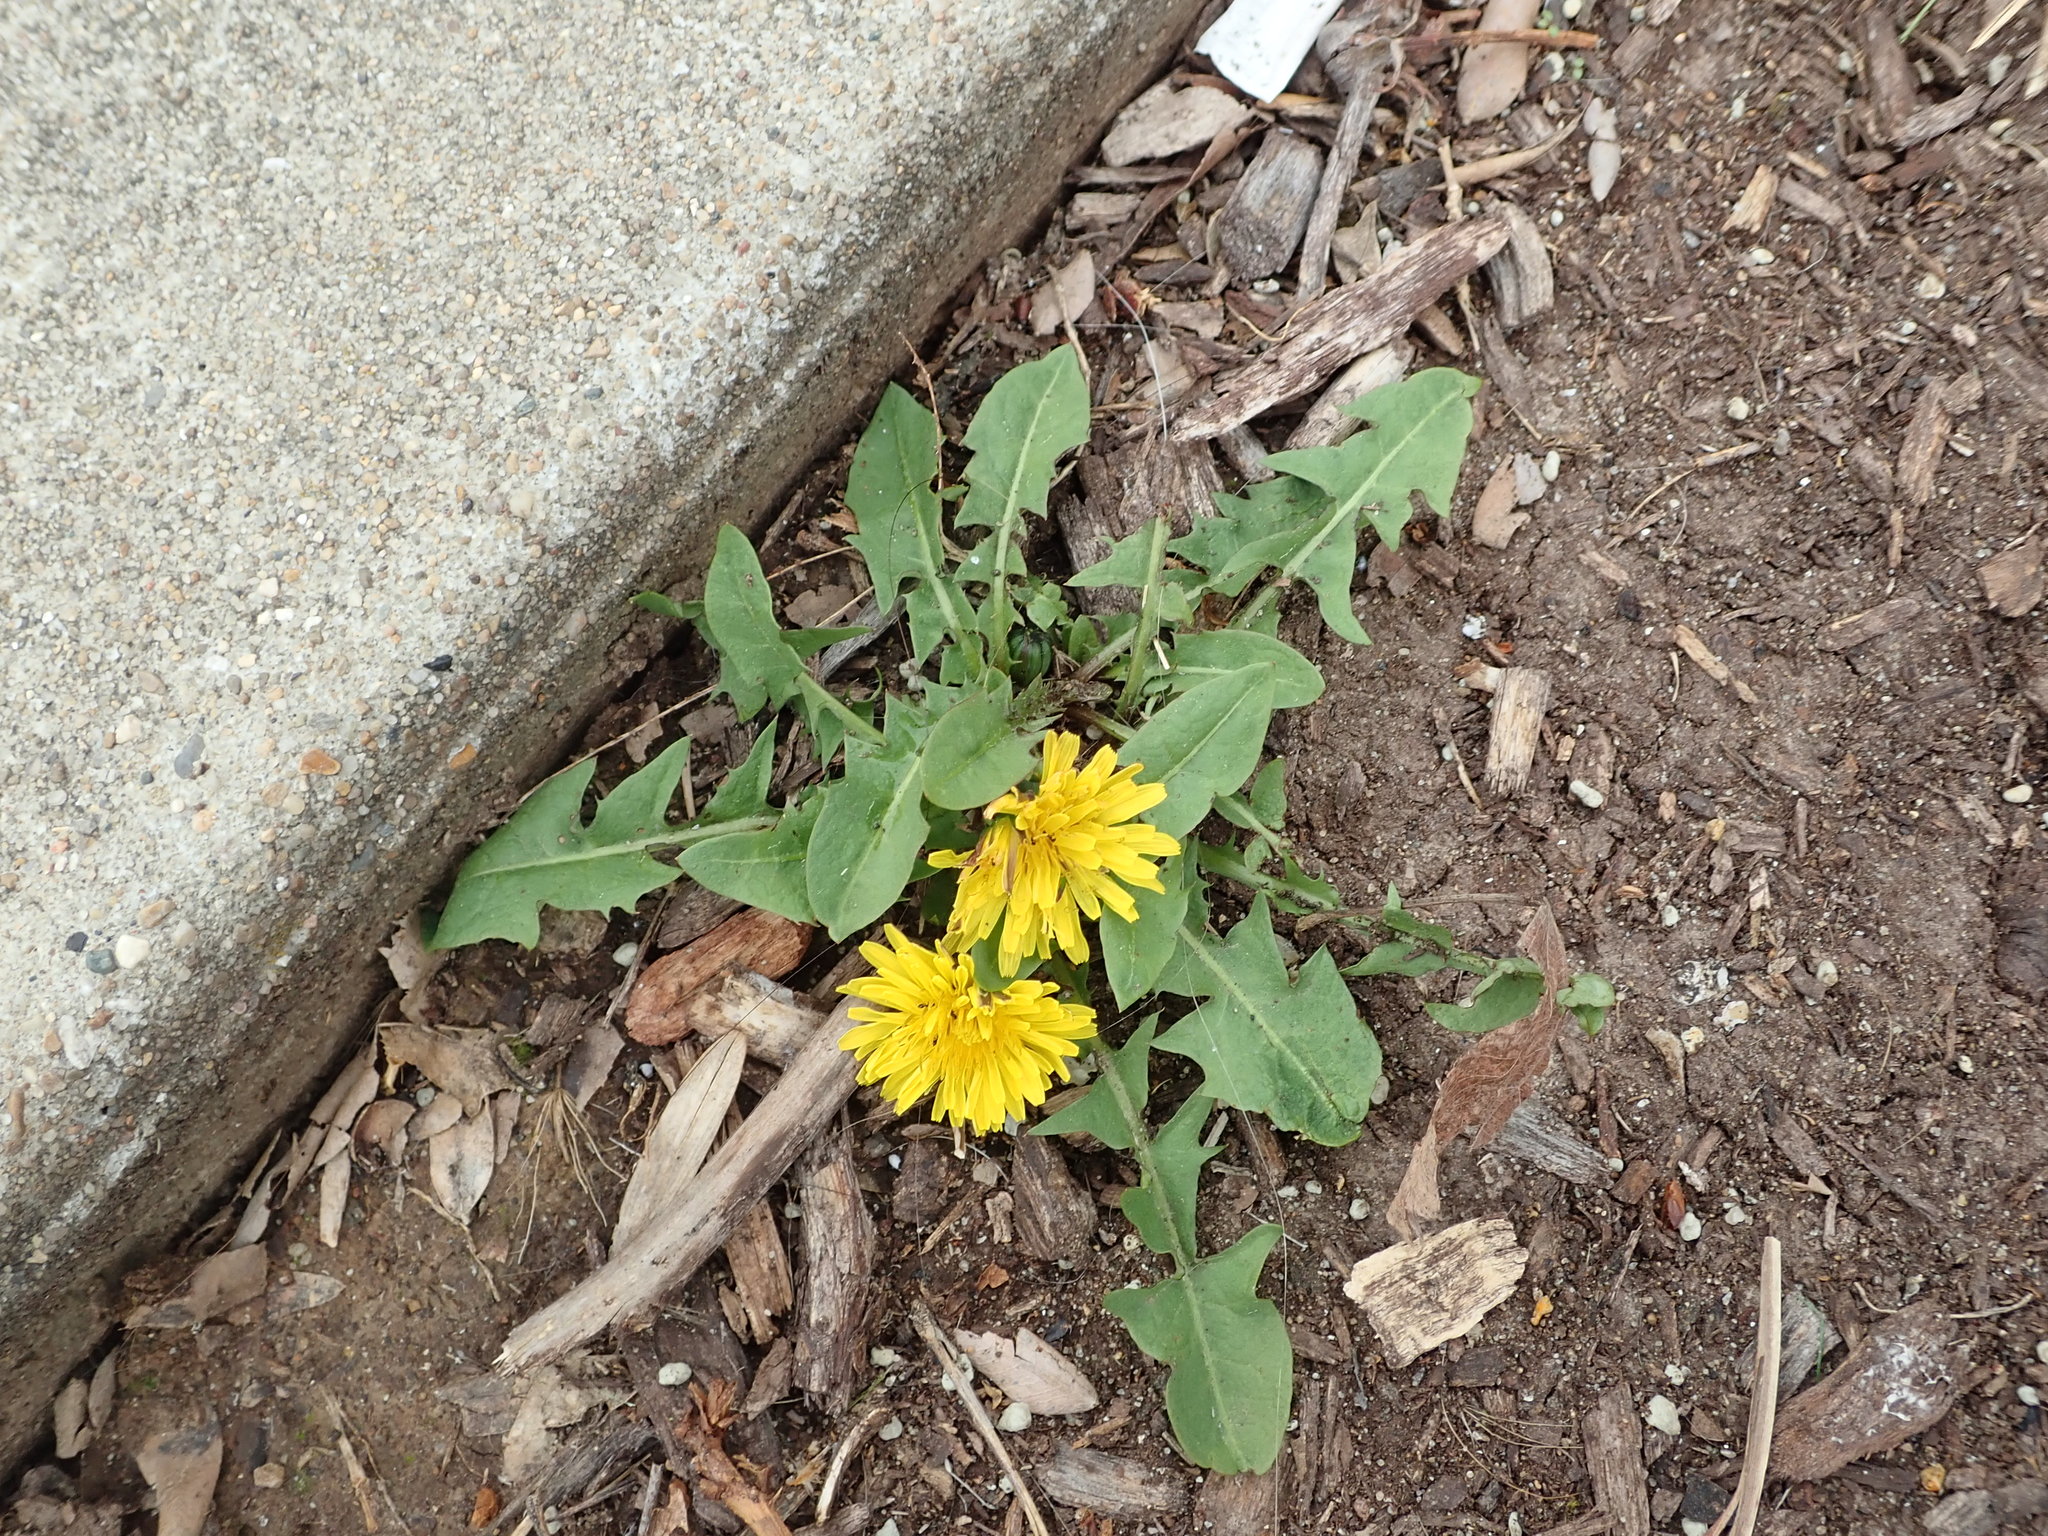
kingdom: Plantae
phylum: Tracheophyta
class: Magnoliopsida
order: Asterales
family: Asteraceae
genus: Taraxacum
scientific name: Taraxacum officinale
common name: Common dandelion
